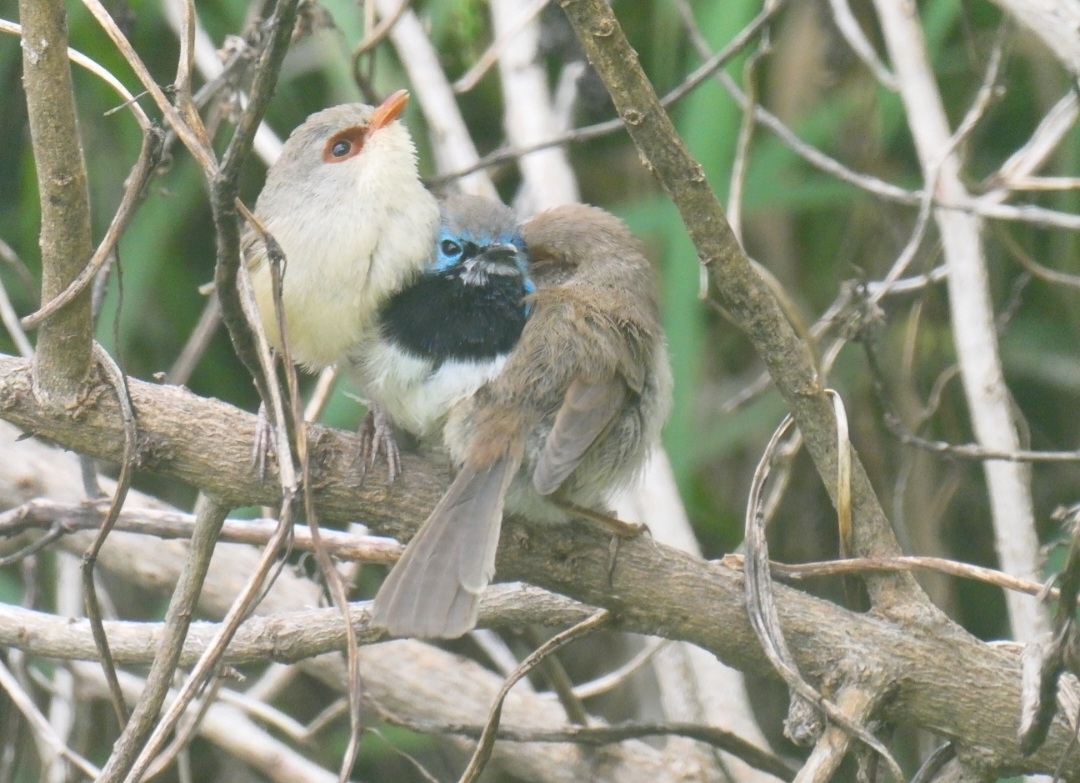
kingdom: Animalia
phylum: Chordata
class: Aves
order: Passeriformes
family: Maluridae
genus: Malurus
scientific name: Malurus lamberti
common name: Variegated fairywren
